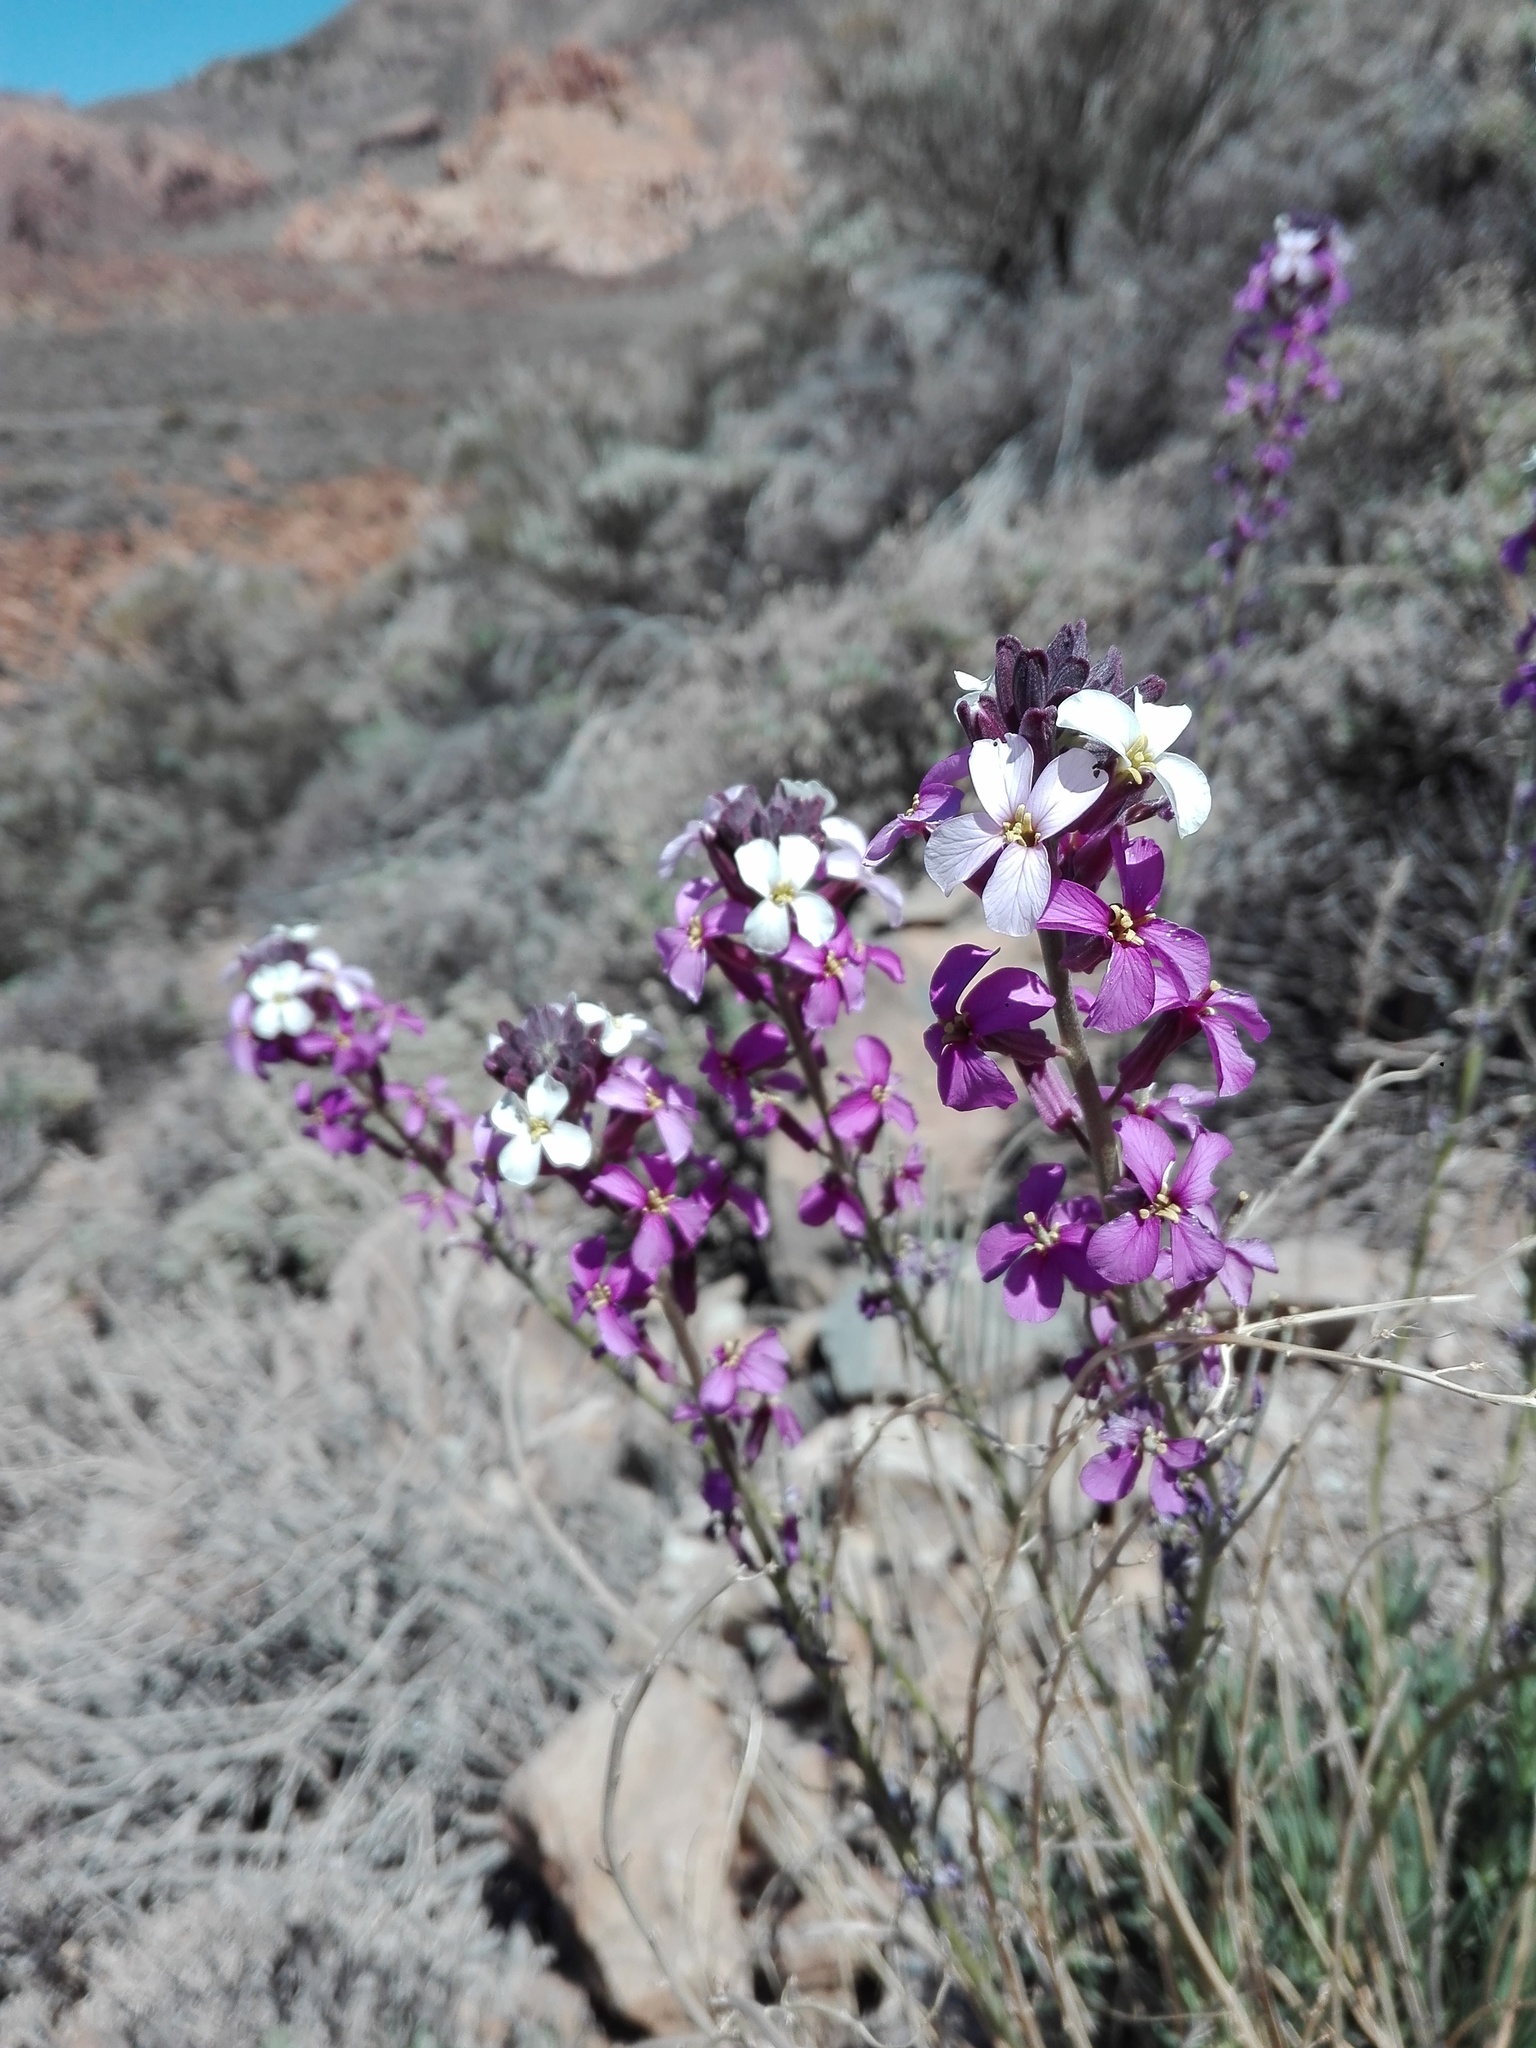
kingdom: Plantae
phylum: Tracheophyta
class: Magnoliopsida
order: Brassicales
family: Brassicaceae
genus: Erysimum
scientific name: Erysimum scoparium
